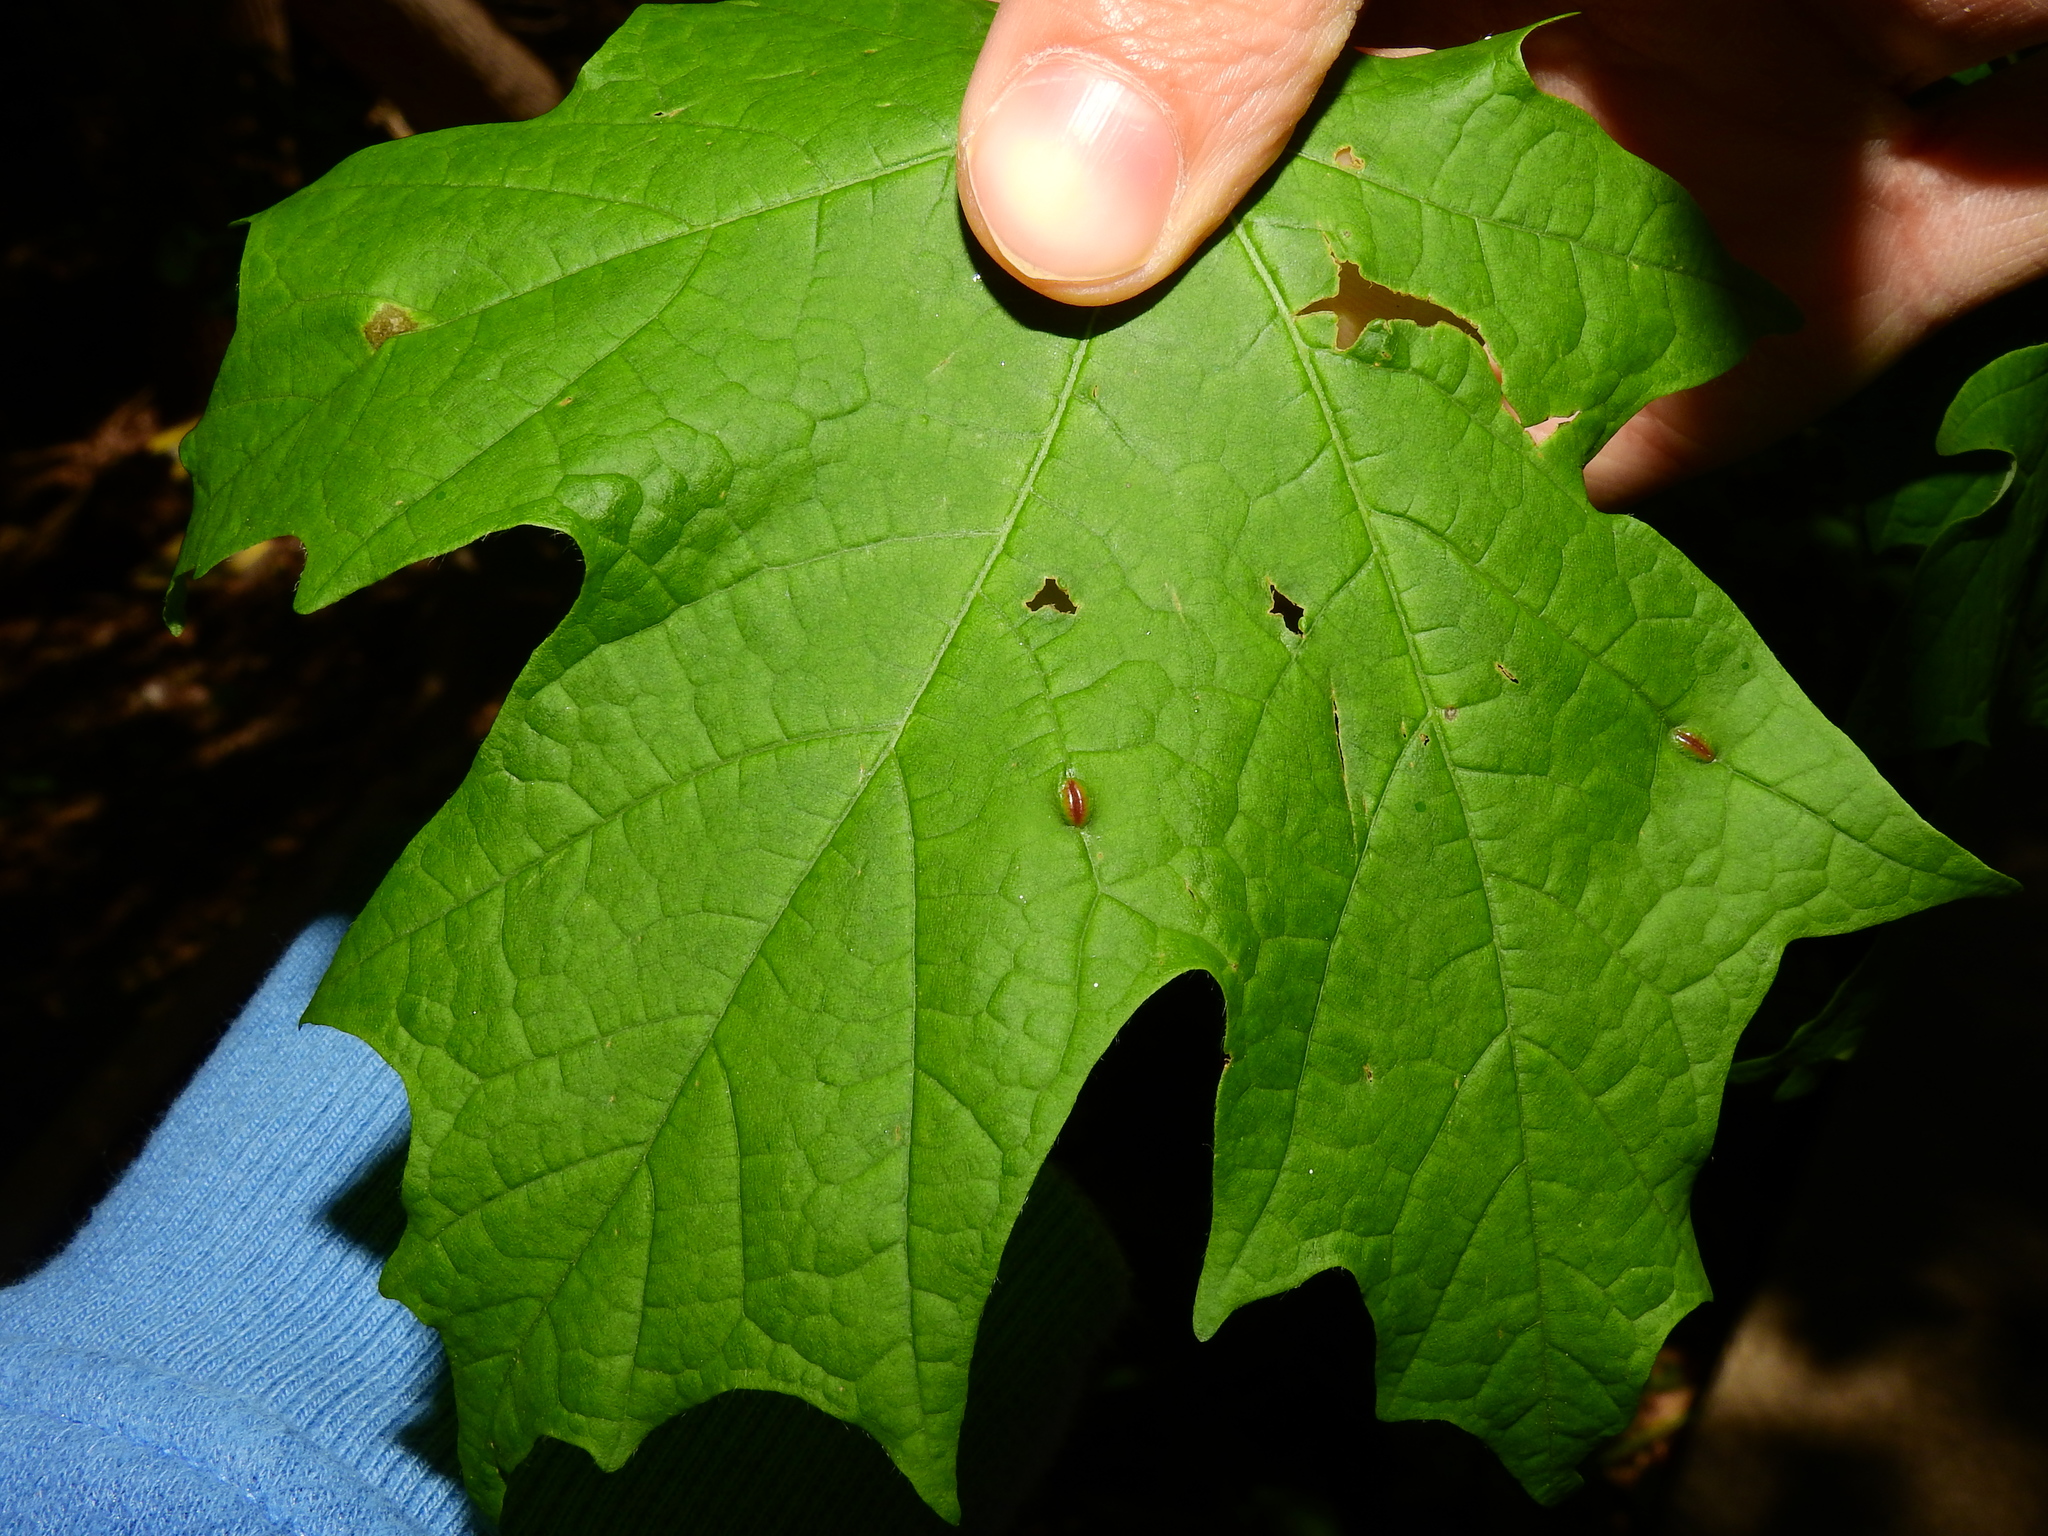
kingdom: Animalia
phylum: Arthropoda
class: Insecta
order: Diptera
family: Cecidomyiidae
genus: Dasineura
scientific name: Dasineura communis
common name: Gouty vein midge
